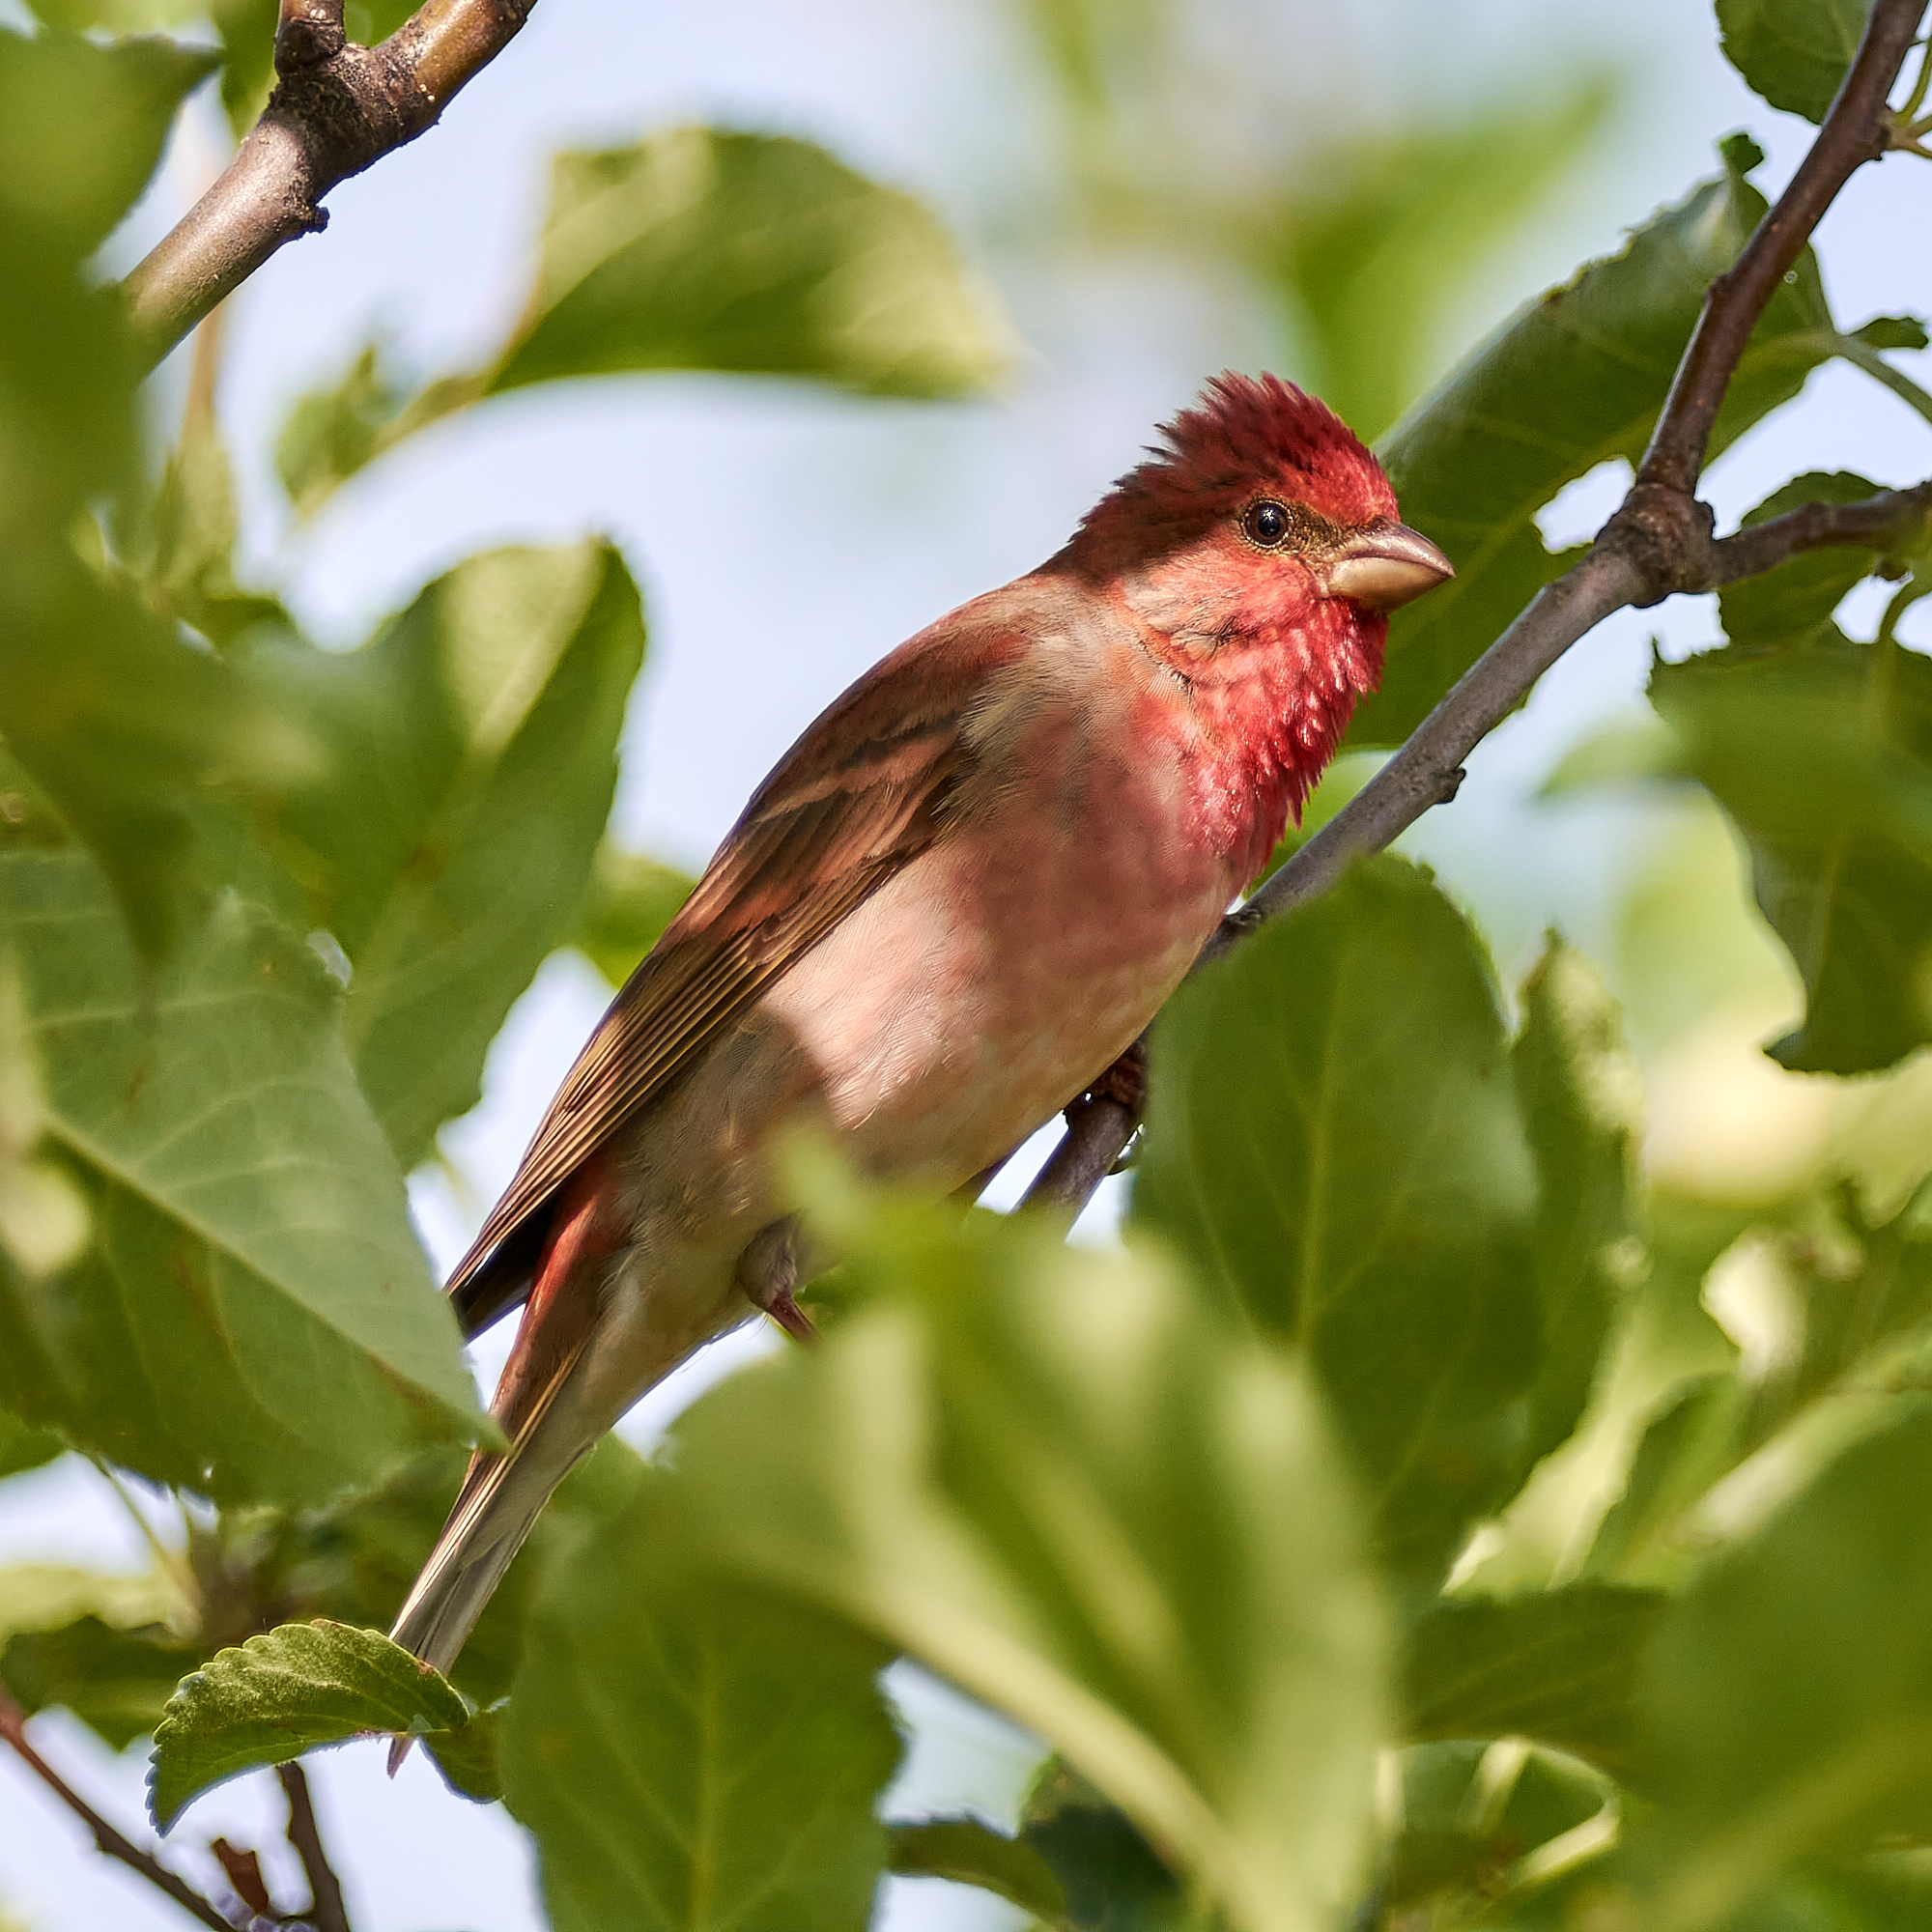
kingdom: Animalia
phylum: Chordata
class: Aves
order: Passeriformes
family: Fringillidae
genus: Carpodacus
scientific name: Carpodacus erythrinus
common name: Common rosefinch
